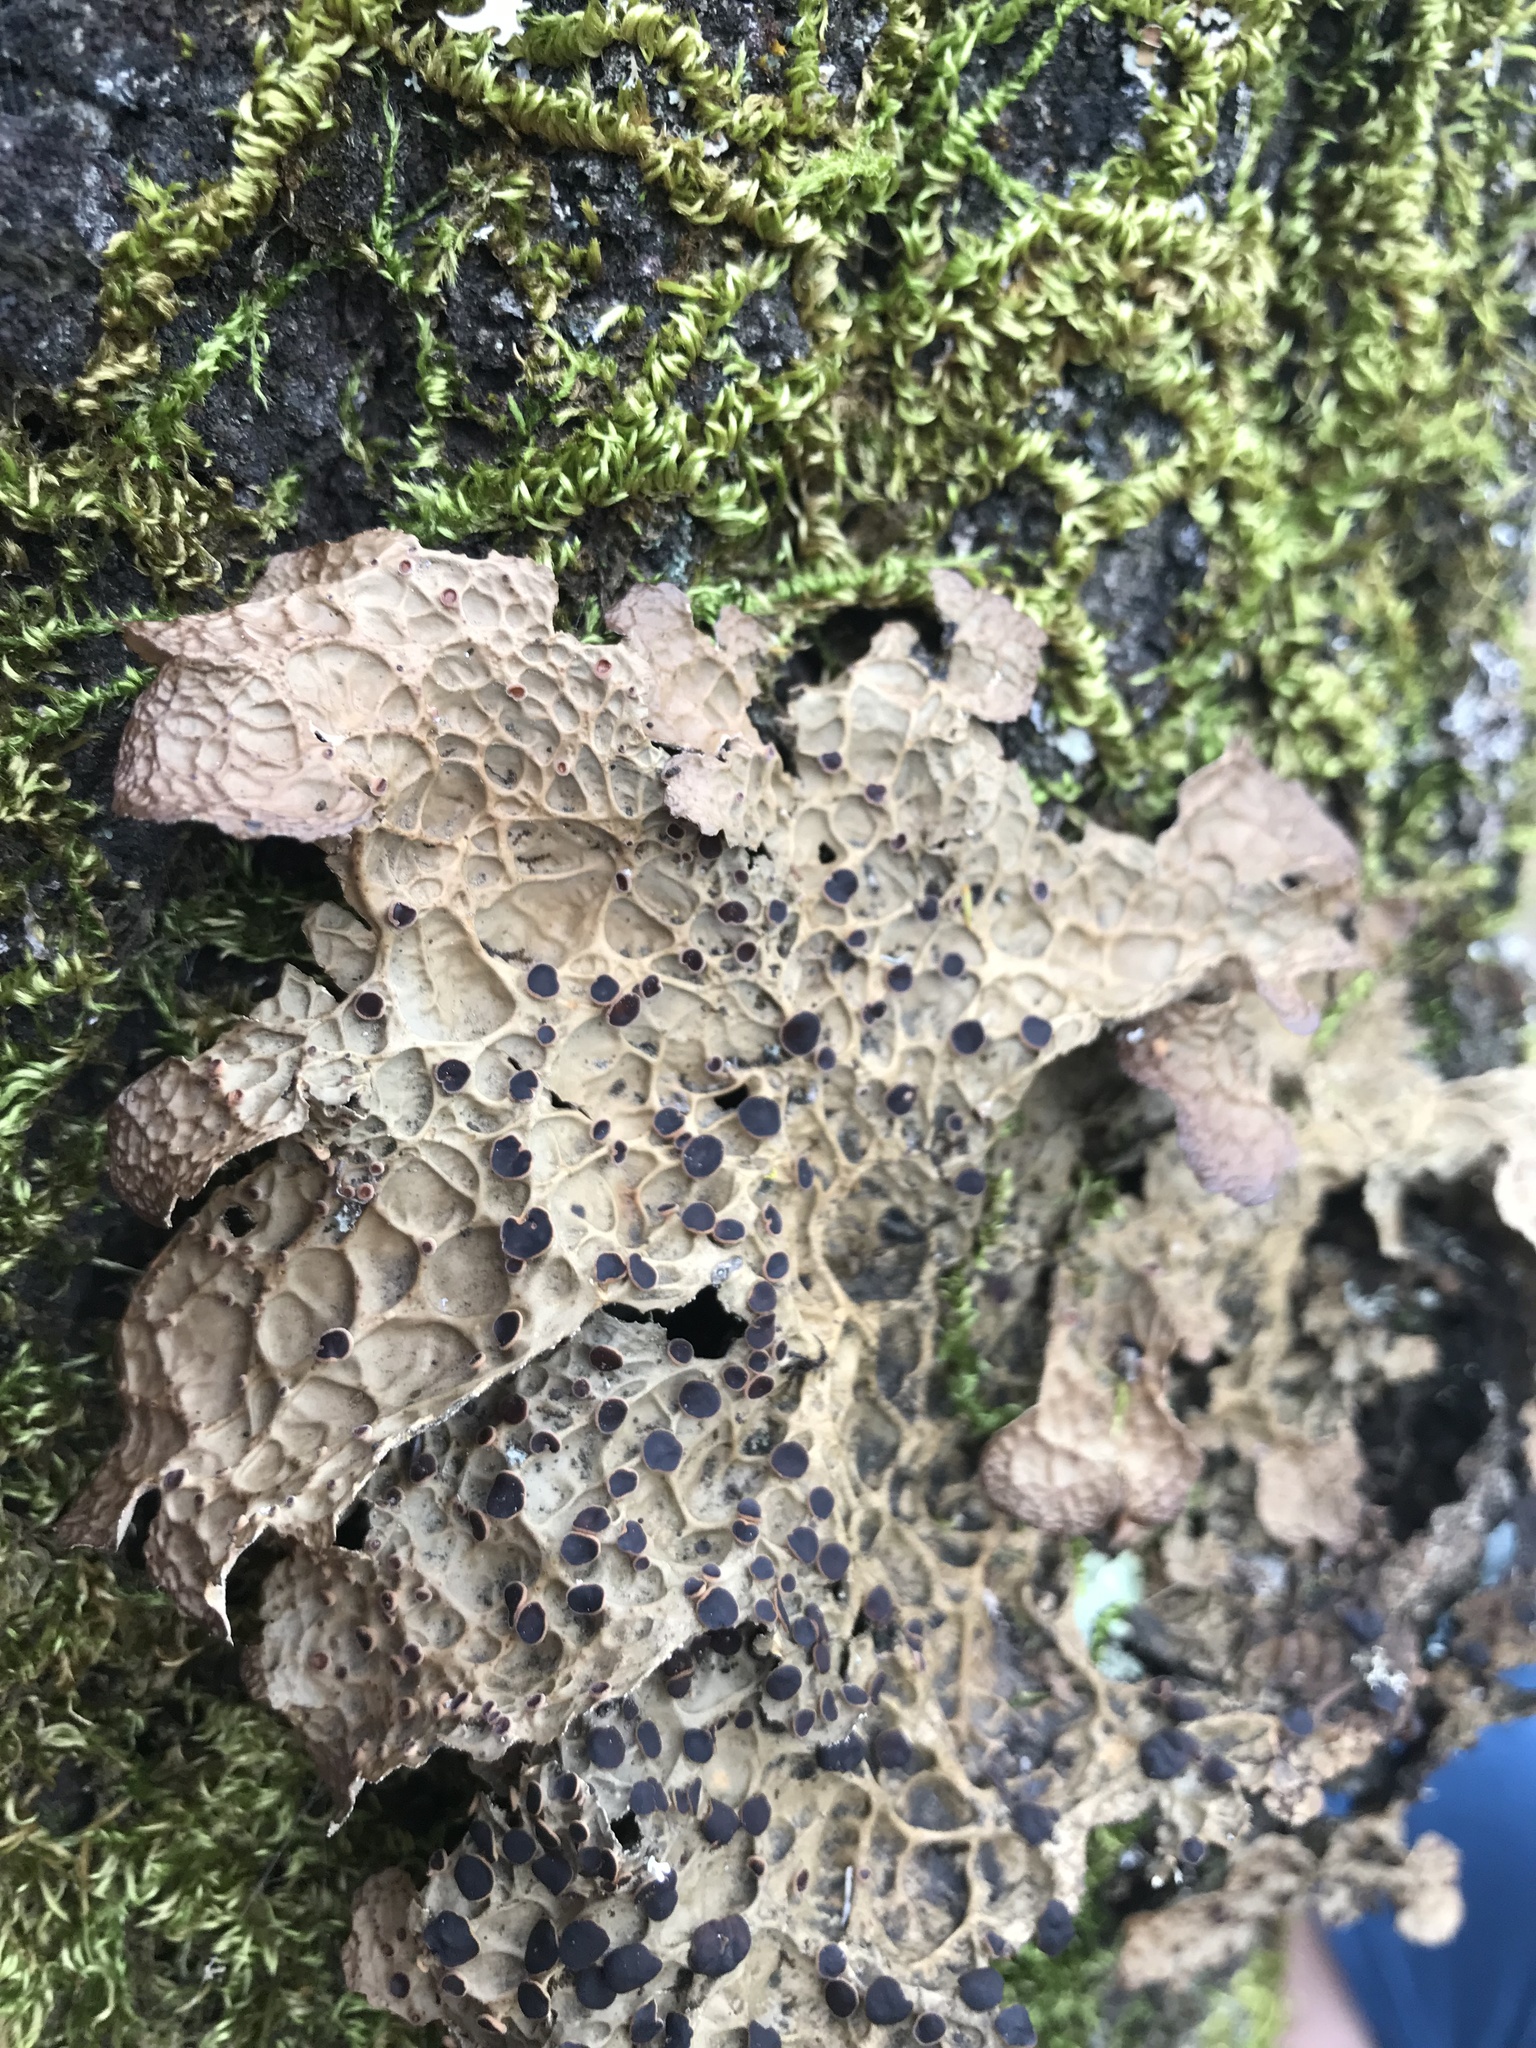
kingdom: Fungi
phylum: Ascomycota
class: Lecanoromycetes
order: Peltigerales
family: Lobariaceae
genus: Lobaria
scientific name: Lobaria anthraspis
